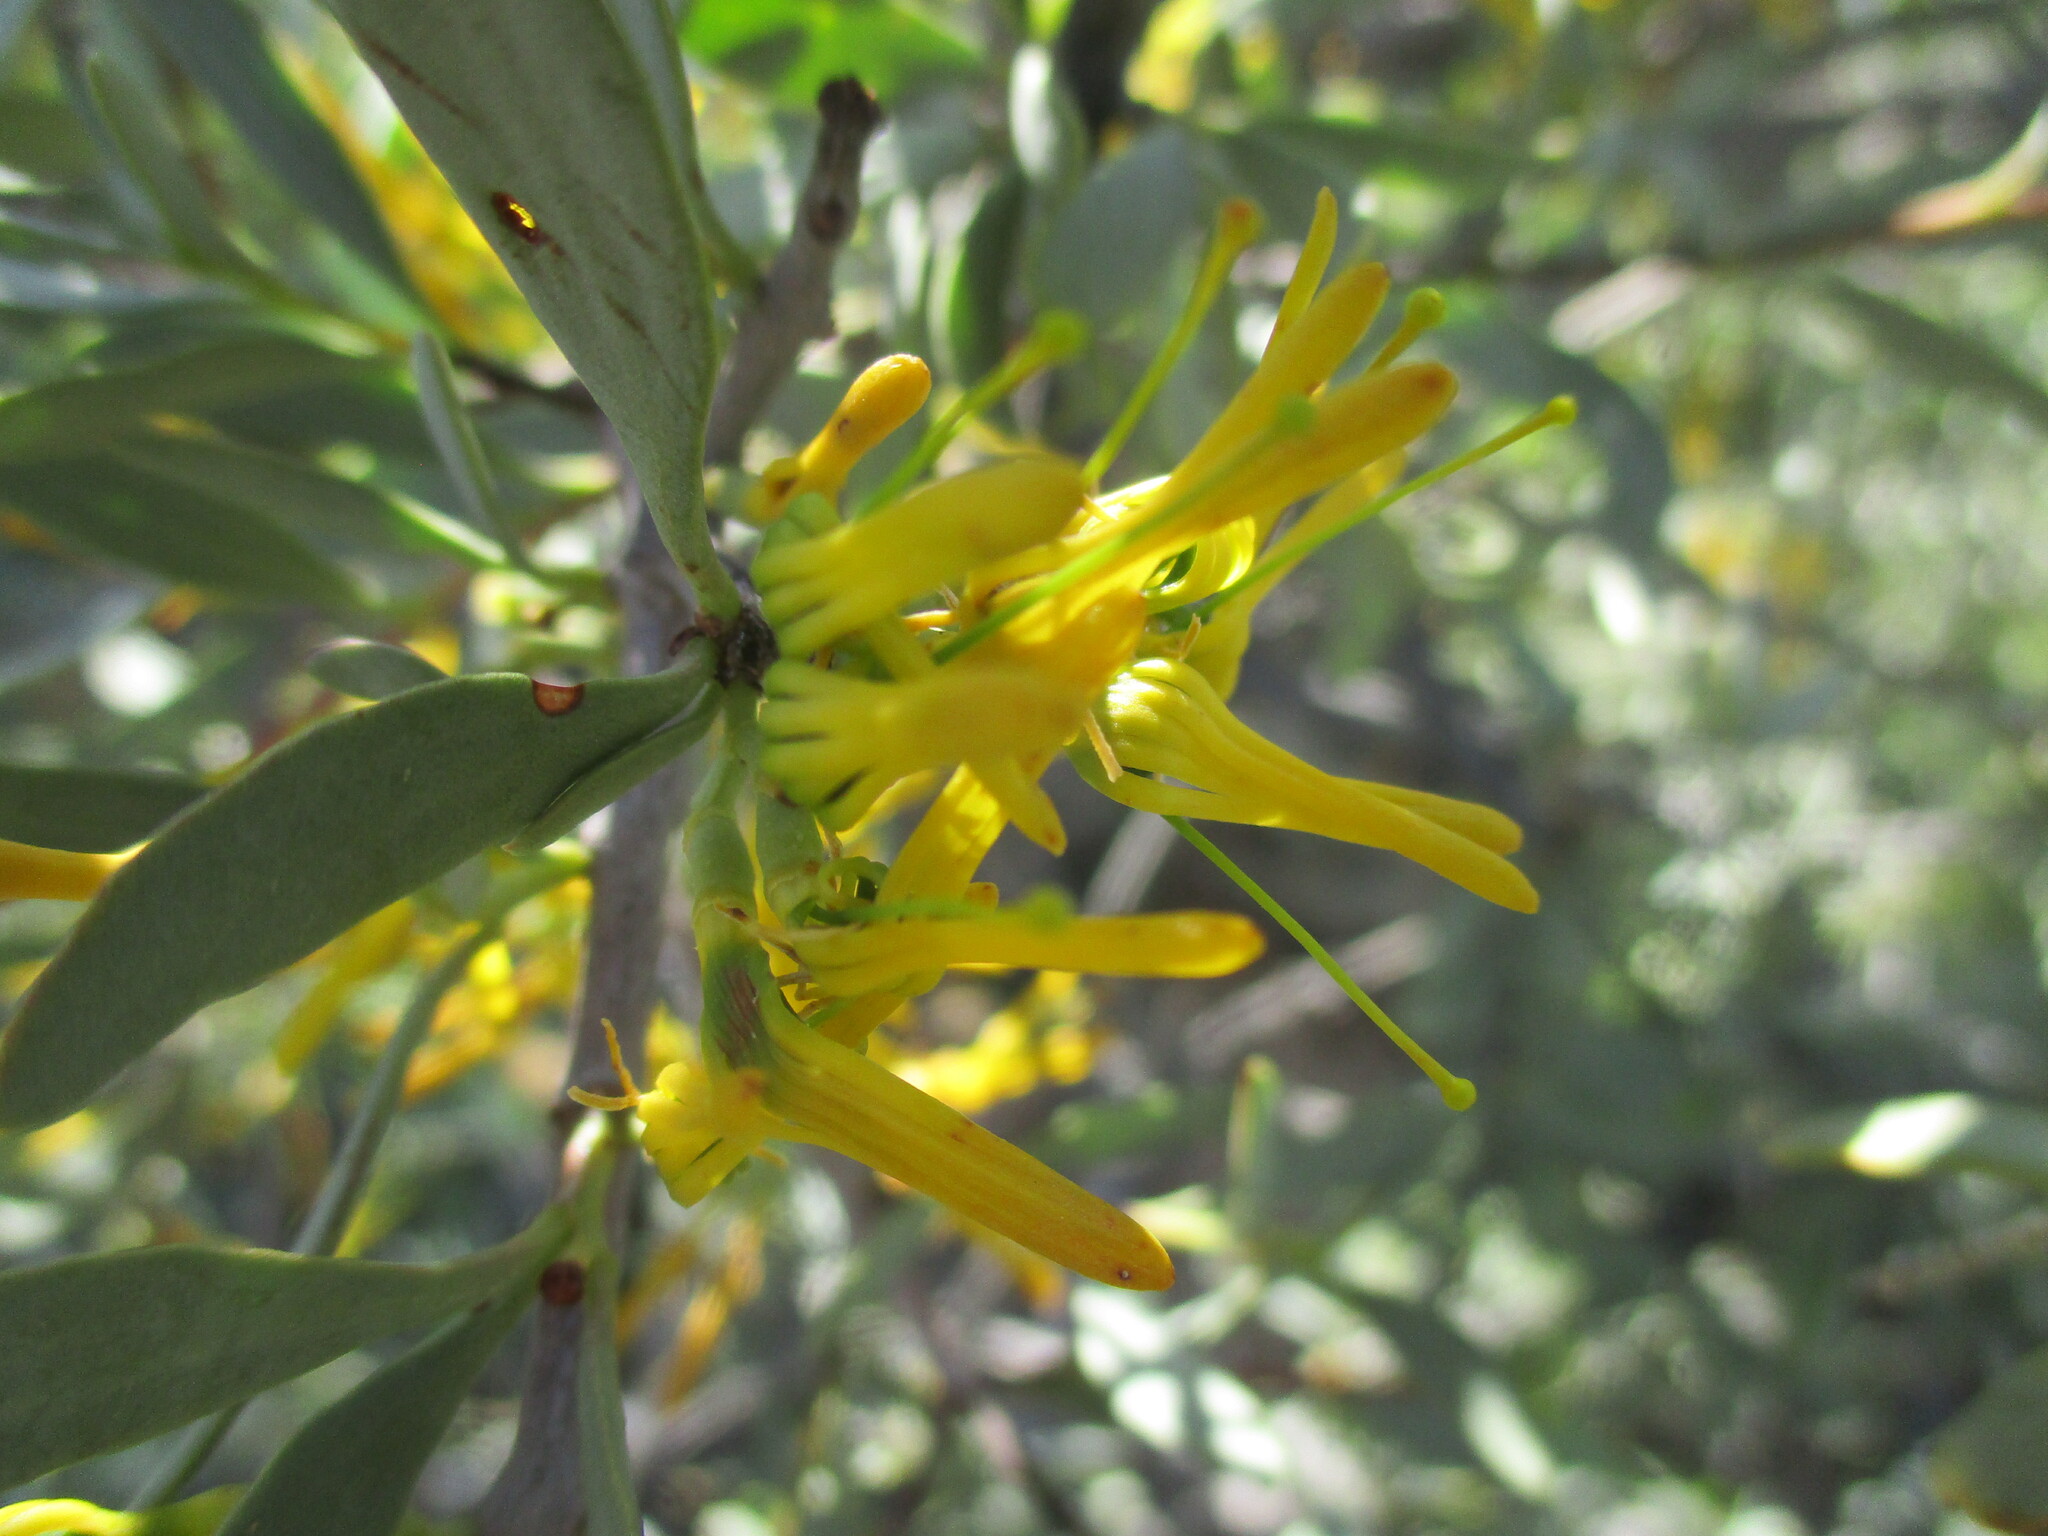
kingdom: Plantae
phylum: Tracheophyta
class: Magnoliopsida
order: Santalales
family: Loranthaceae
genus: Loranthella
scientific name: Loranthella welwitschii
